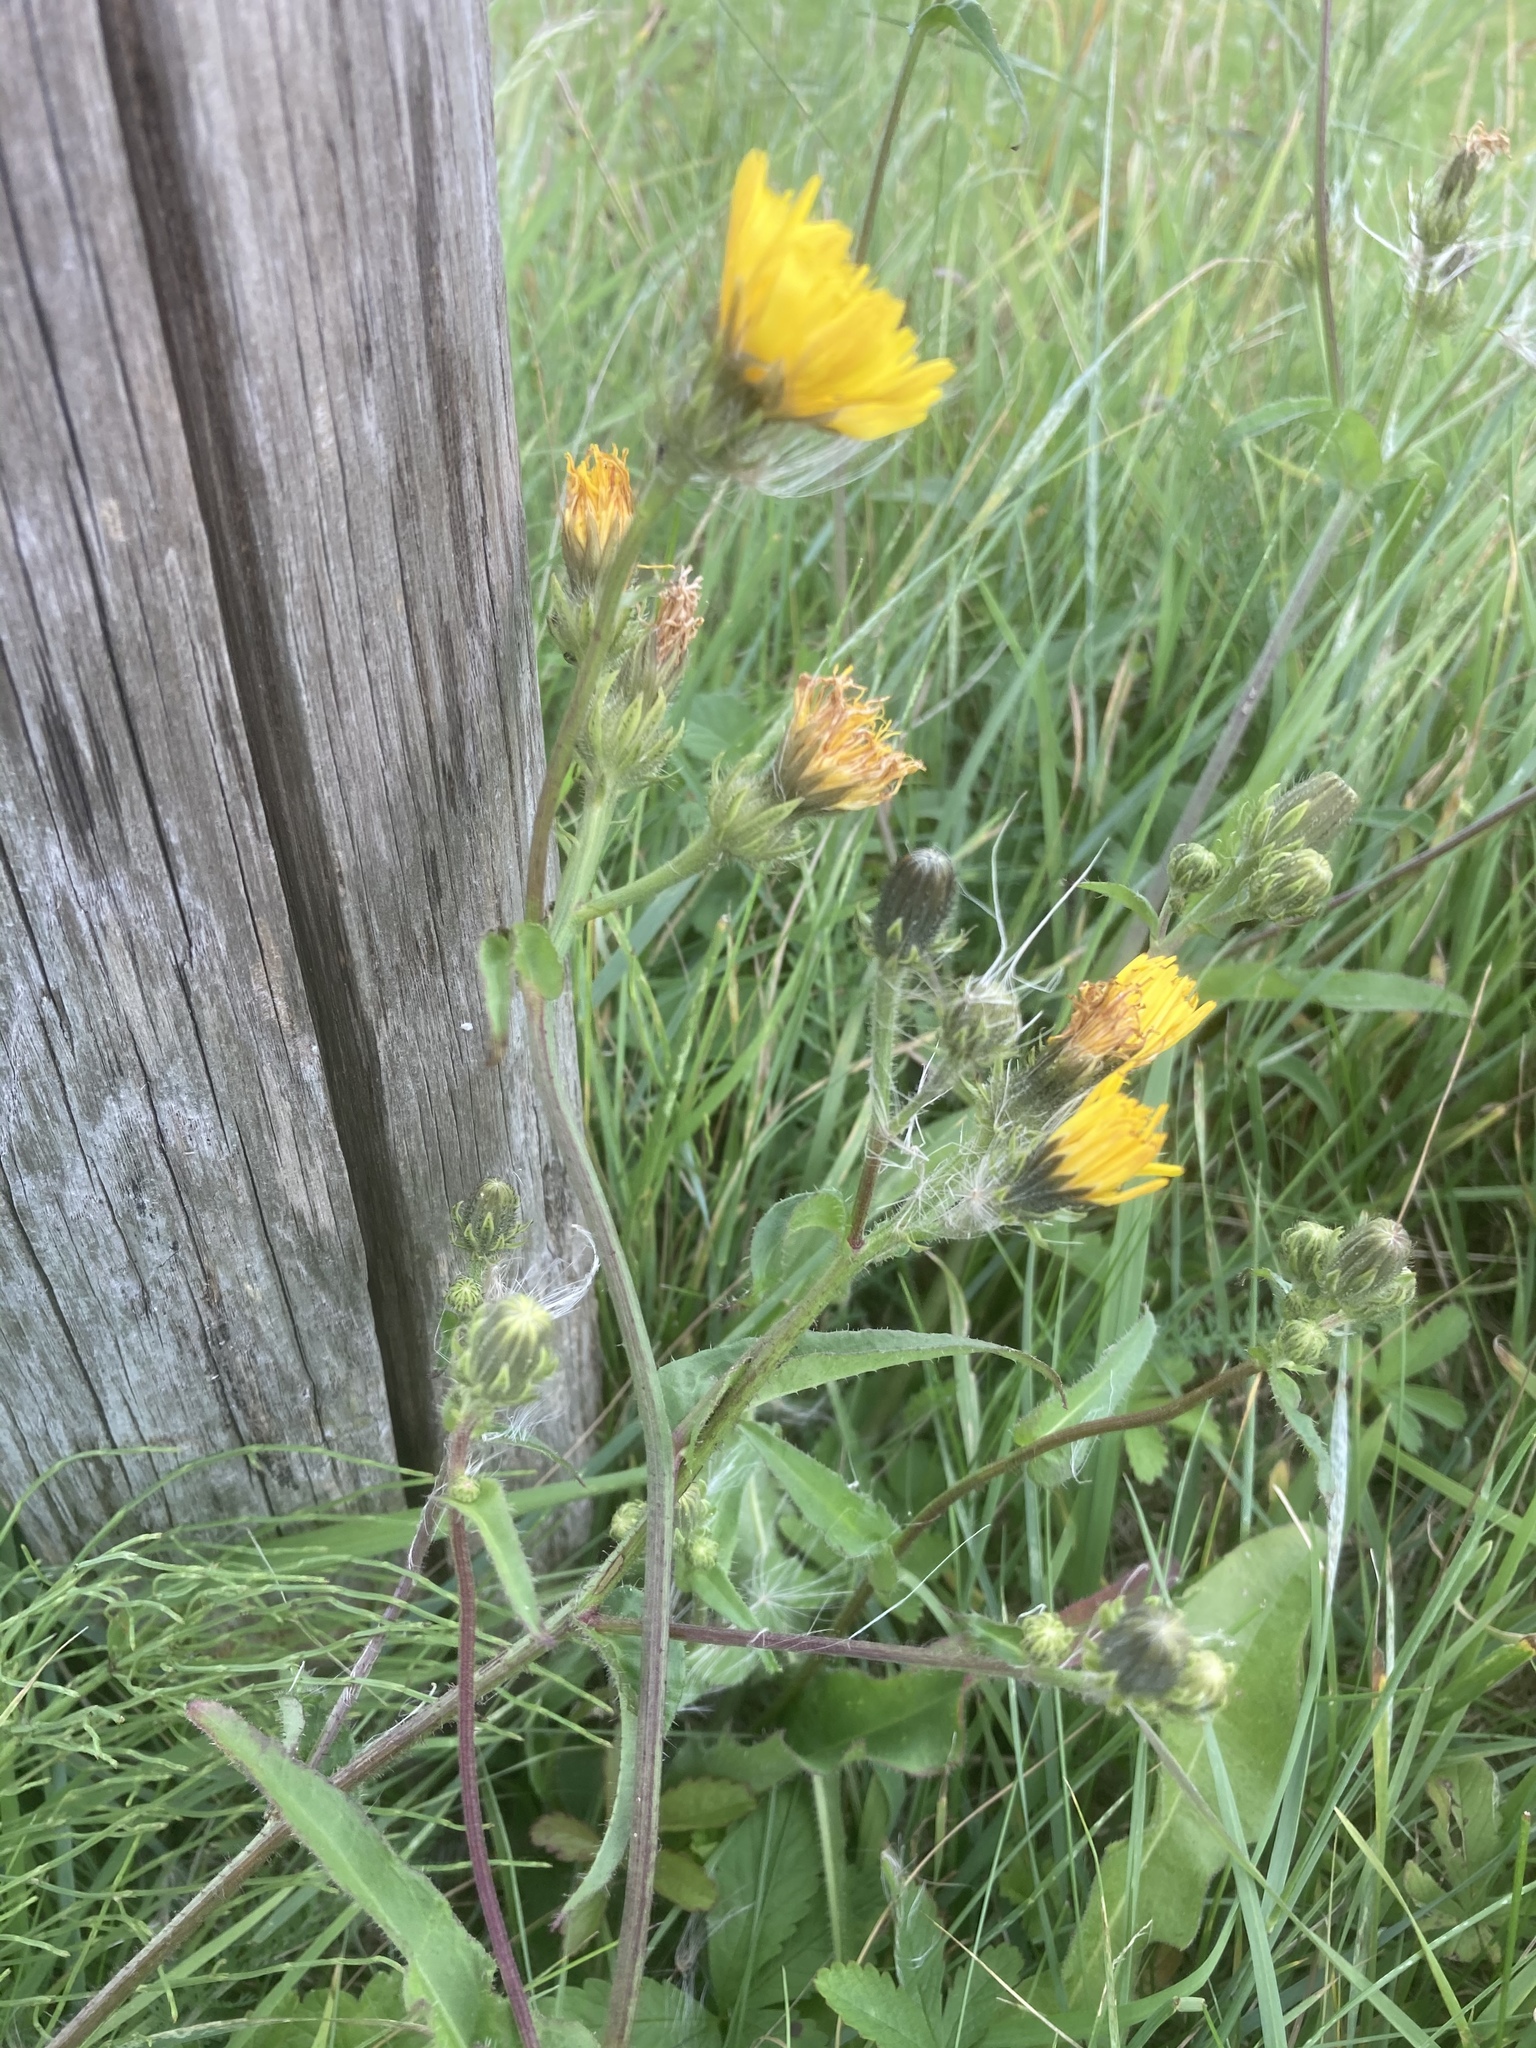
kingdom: Plantae
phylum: Tracheophyta
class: Magnoliopsida
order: Asterales
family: Asteraceae
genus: Picris
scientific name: Picris hieracioides
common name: Hawkweed oxtongue
